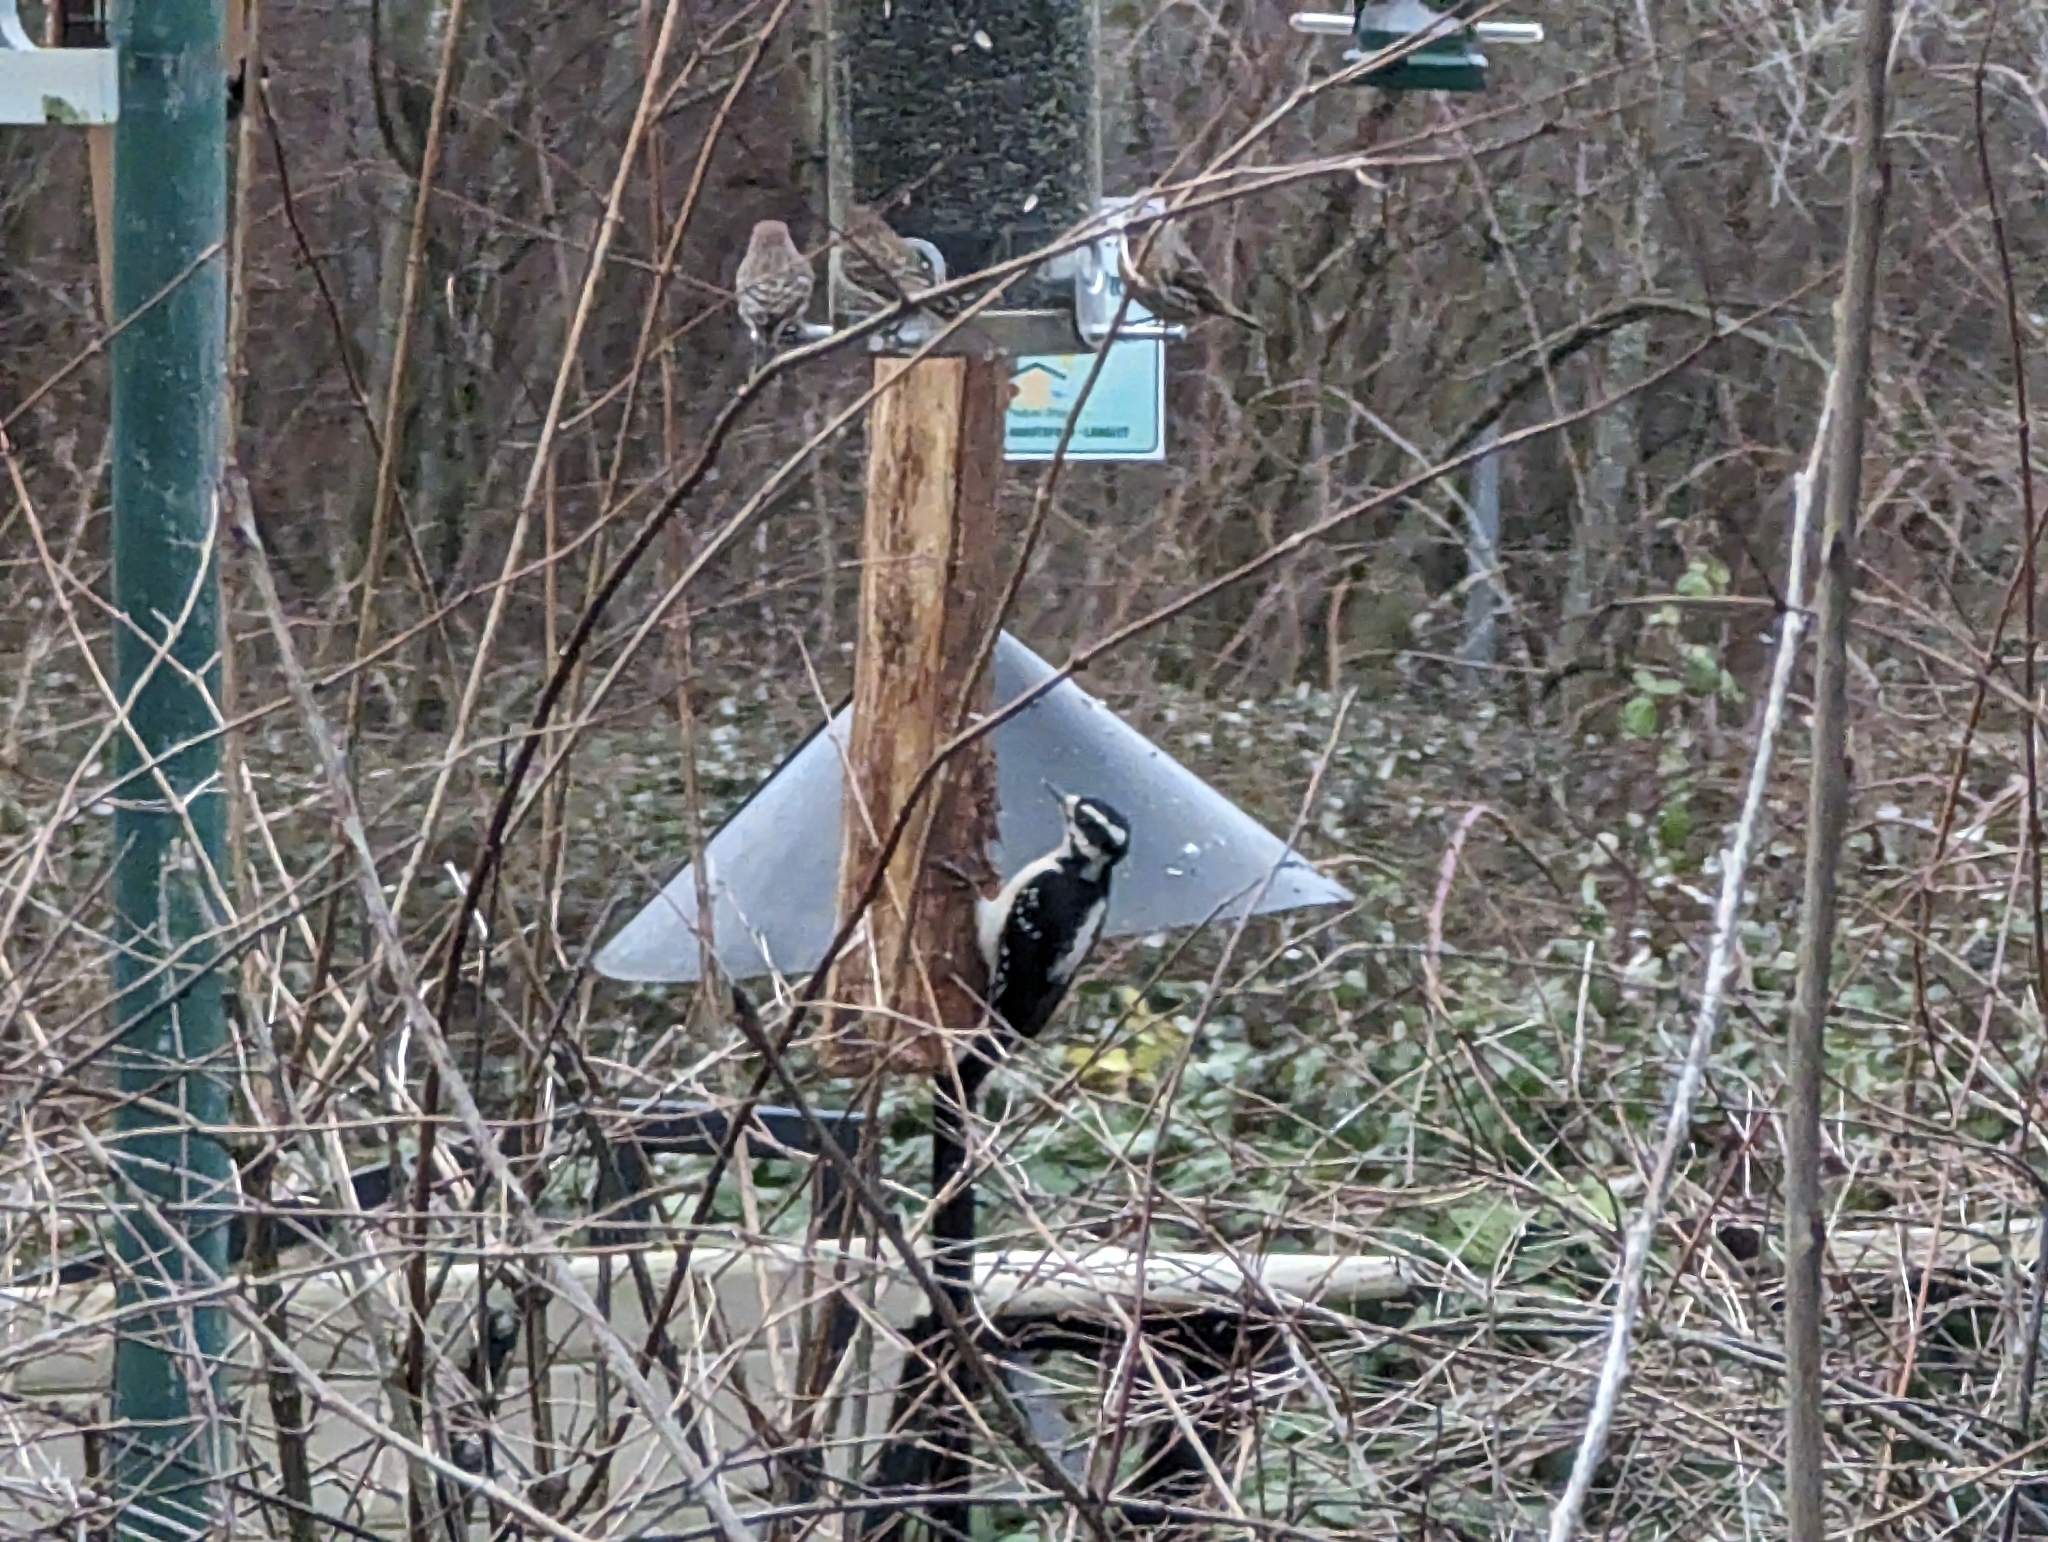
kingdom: Animalia
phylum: Chordata
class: Aves
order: Piciformes
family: Picidae
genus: Leuconotopicus
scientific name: Leuconotopicus villosus
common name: Hairy woodpecker
